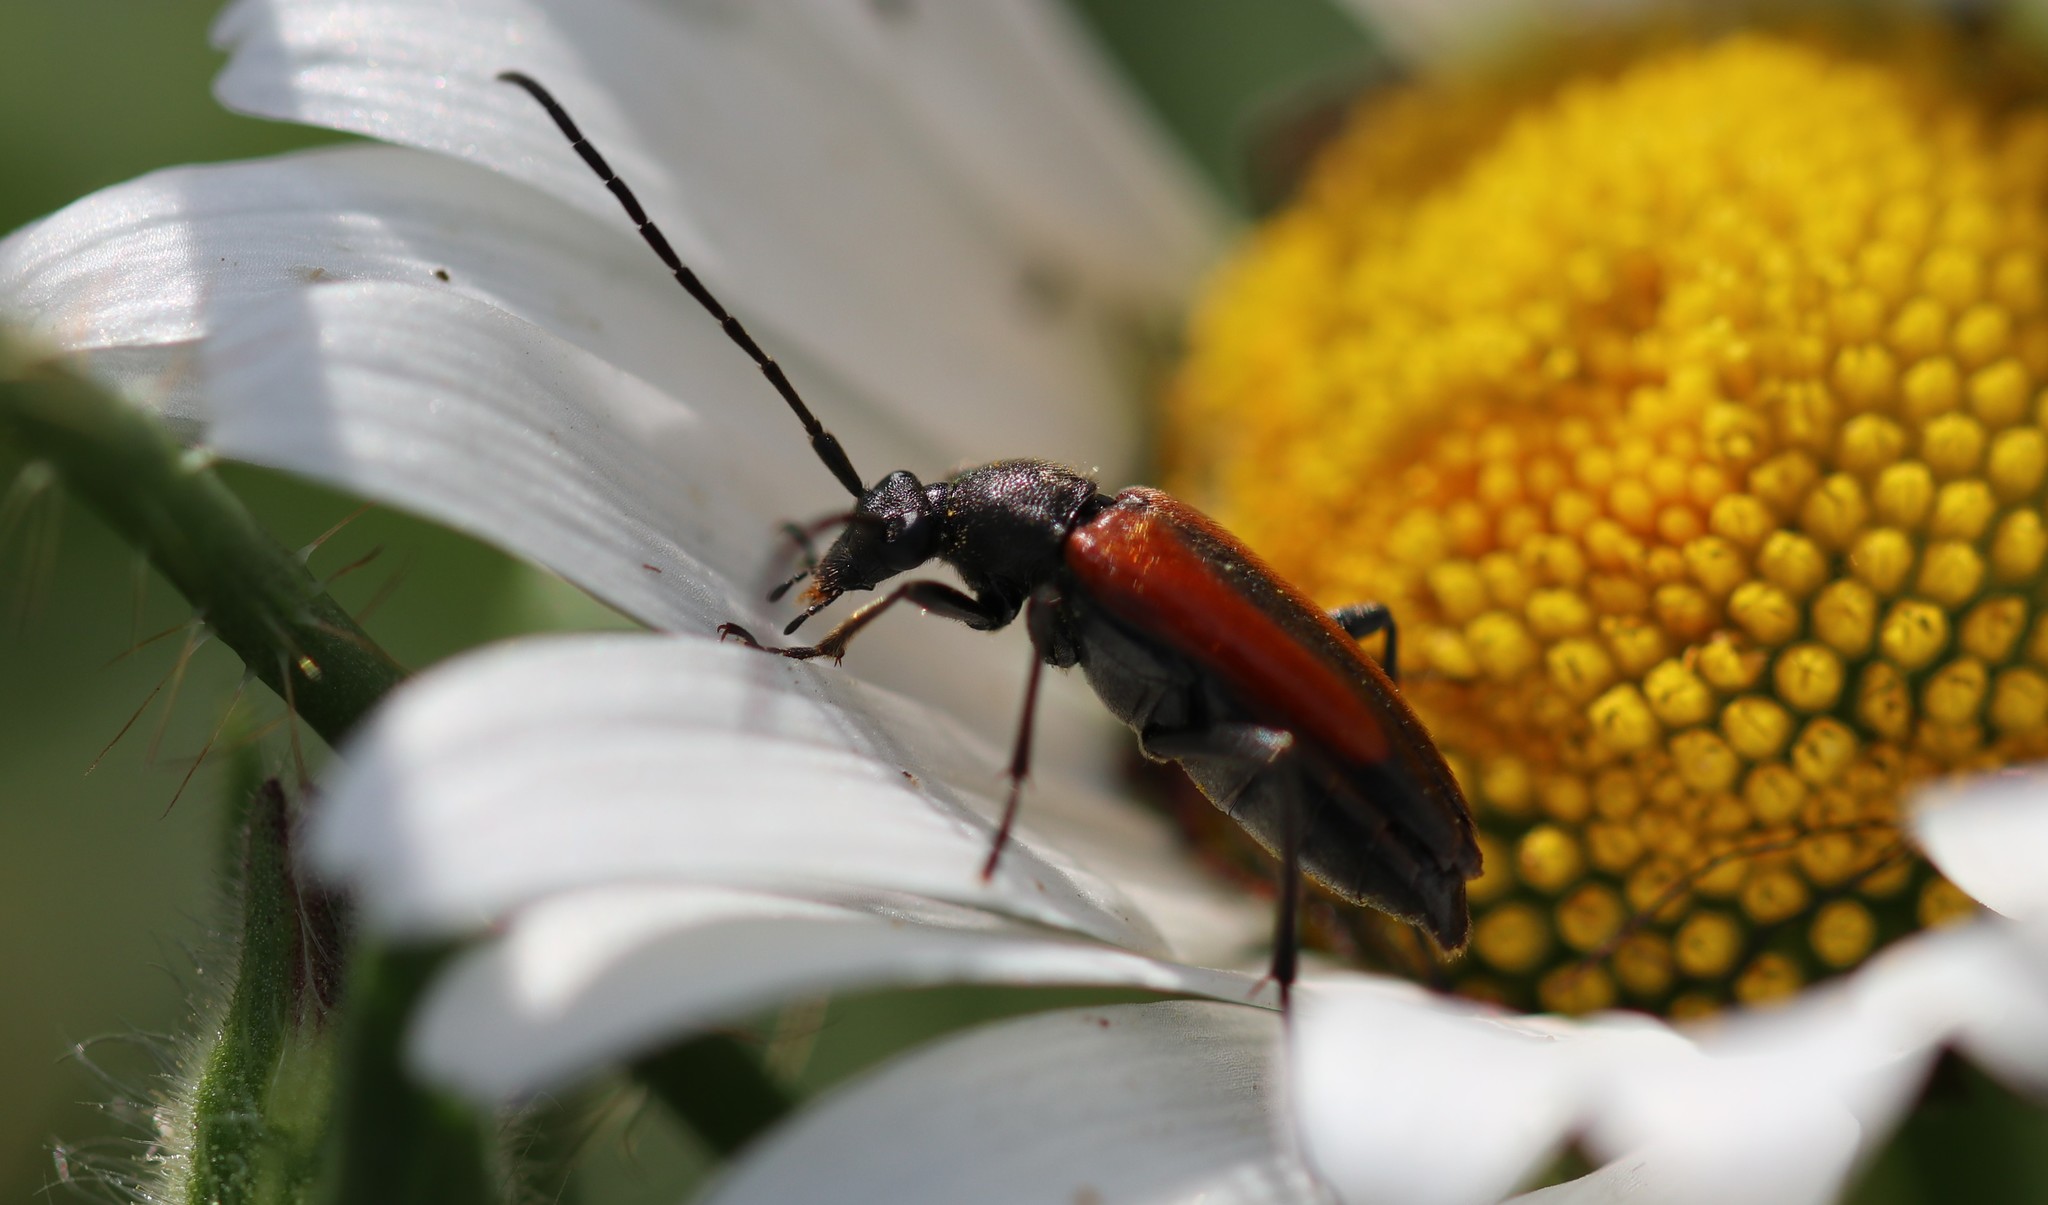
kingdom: Animalia
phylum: Arthropoda
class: Insecta
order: Coleoptera
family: Cerambycidae
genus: Stenurella
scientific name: Stenurella melanura
